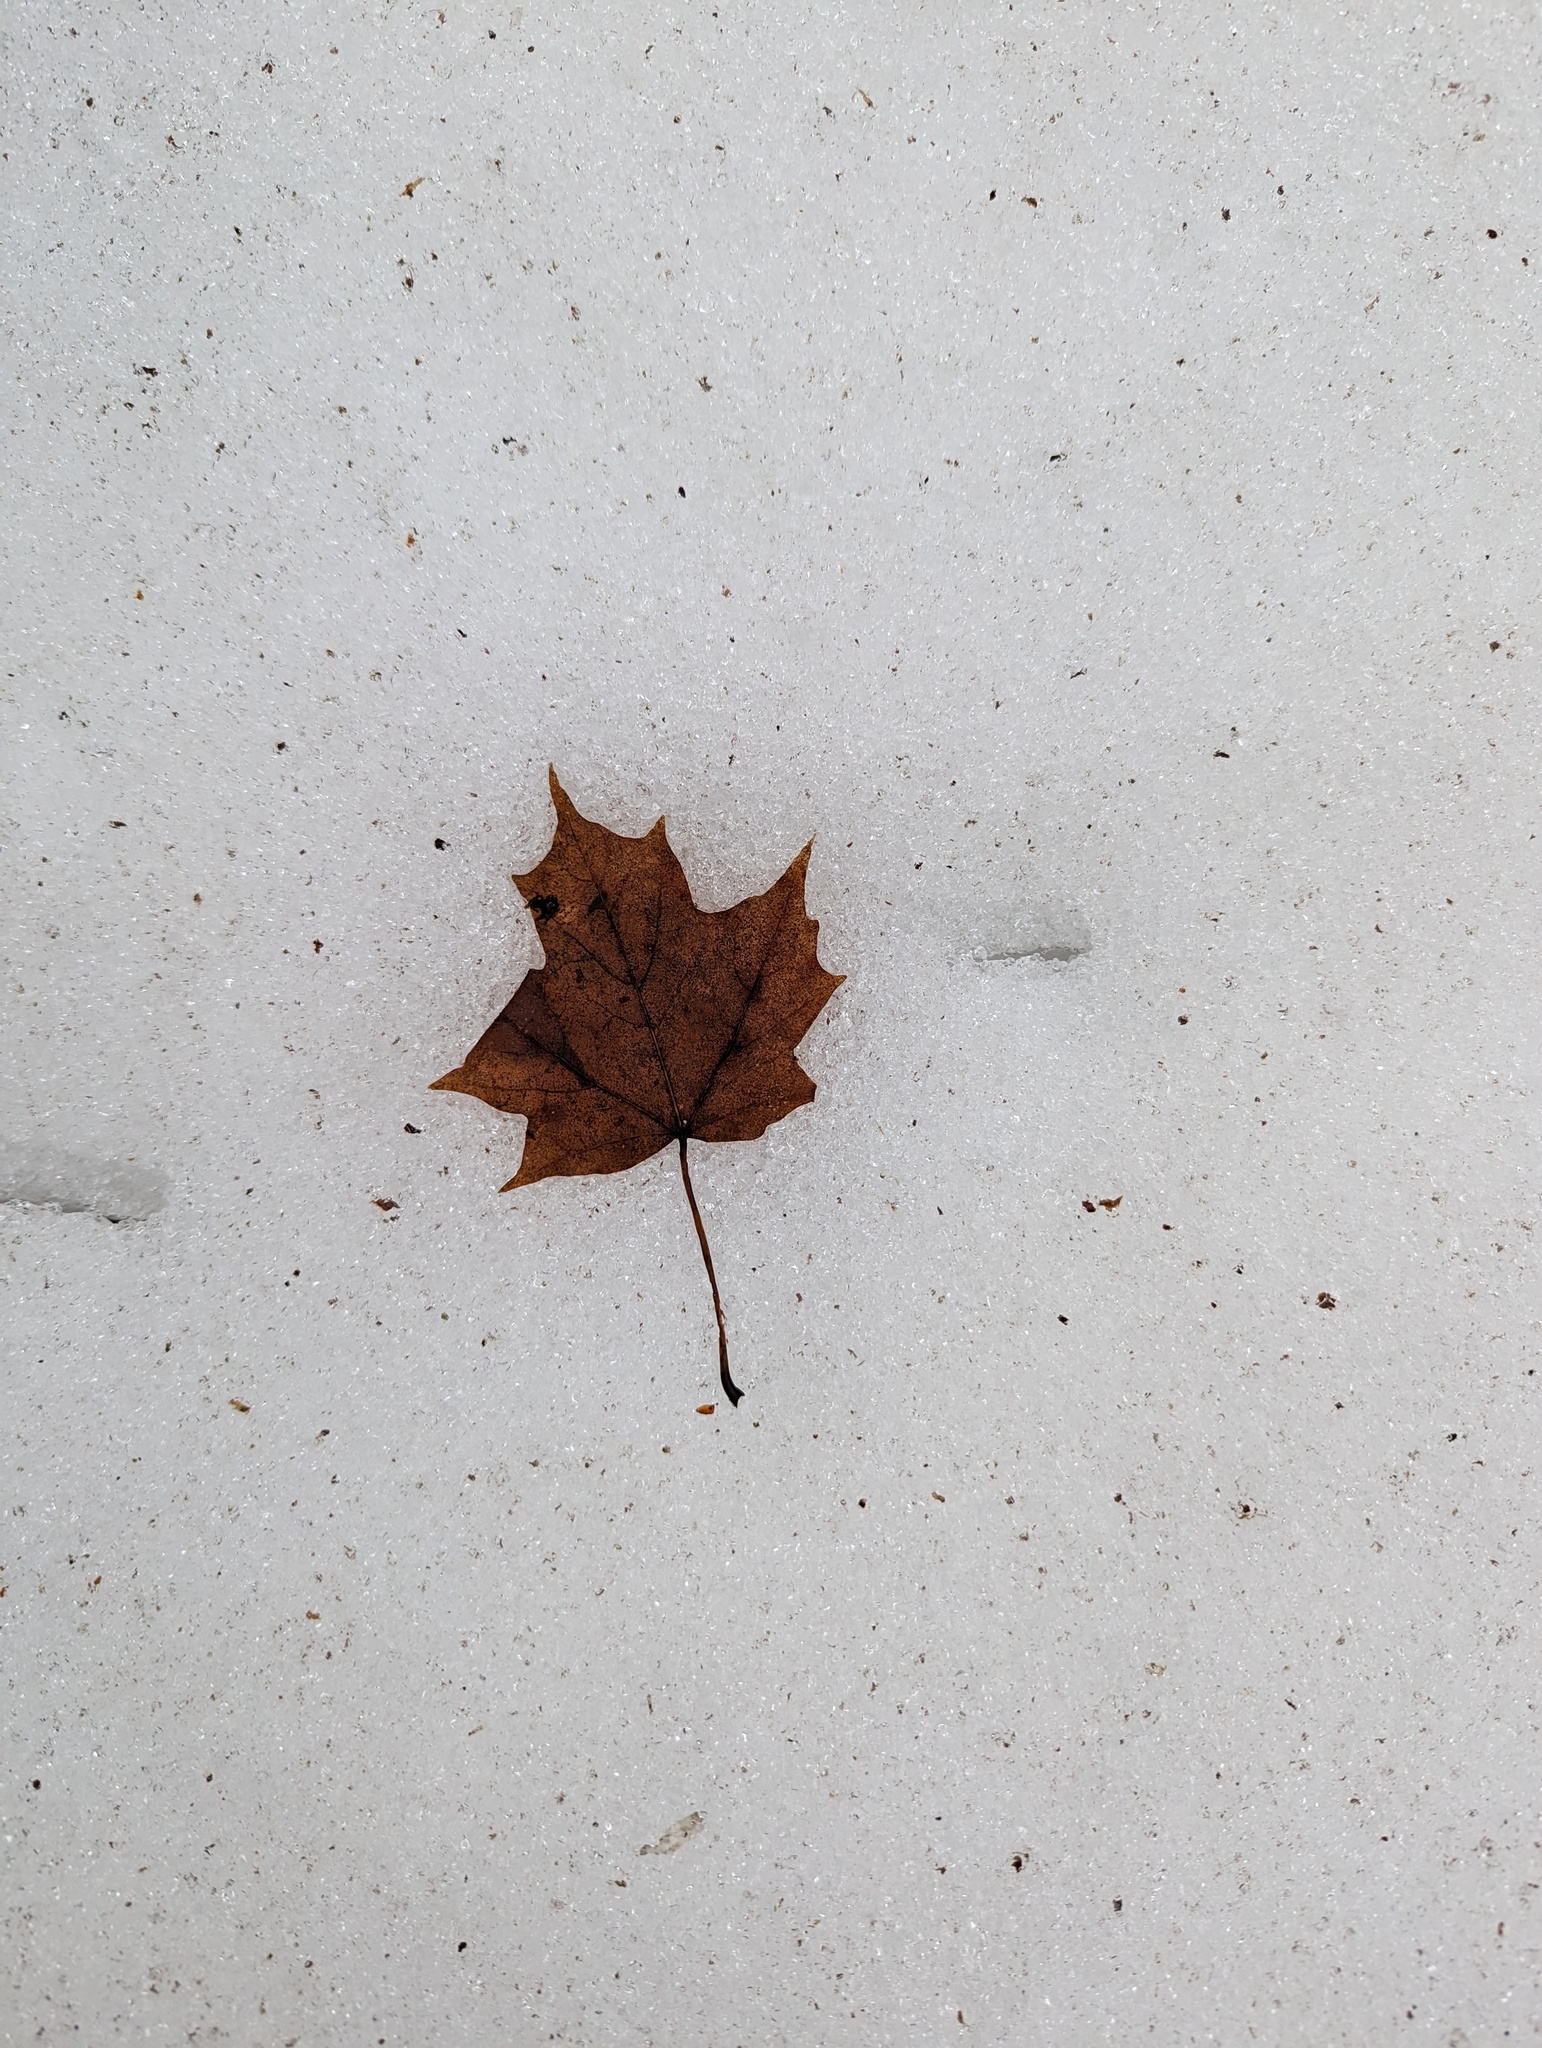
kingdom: Plantae
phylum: Tracheophyta
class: Magnoliopsida
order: Sapindales
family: Sapindaceae
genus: Acer
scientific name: Acer saccharum
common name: Sugar maple
